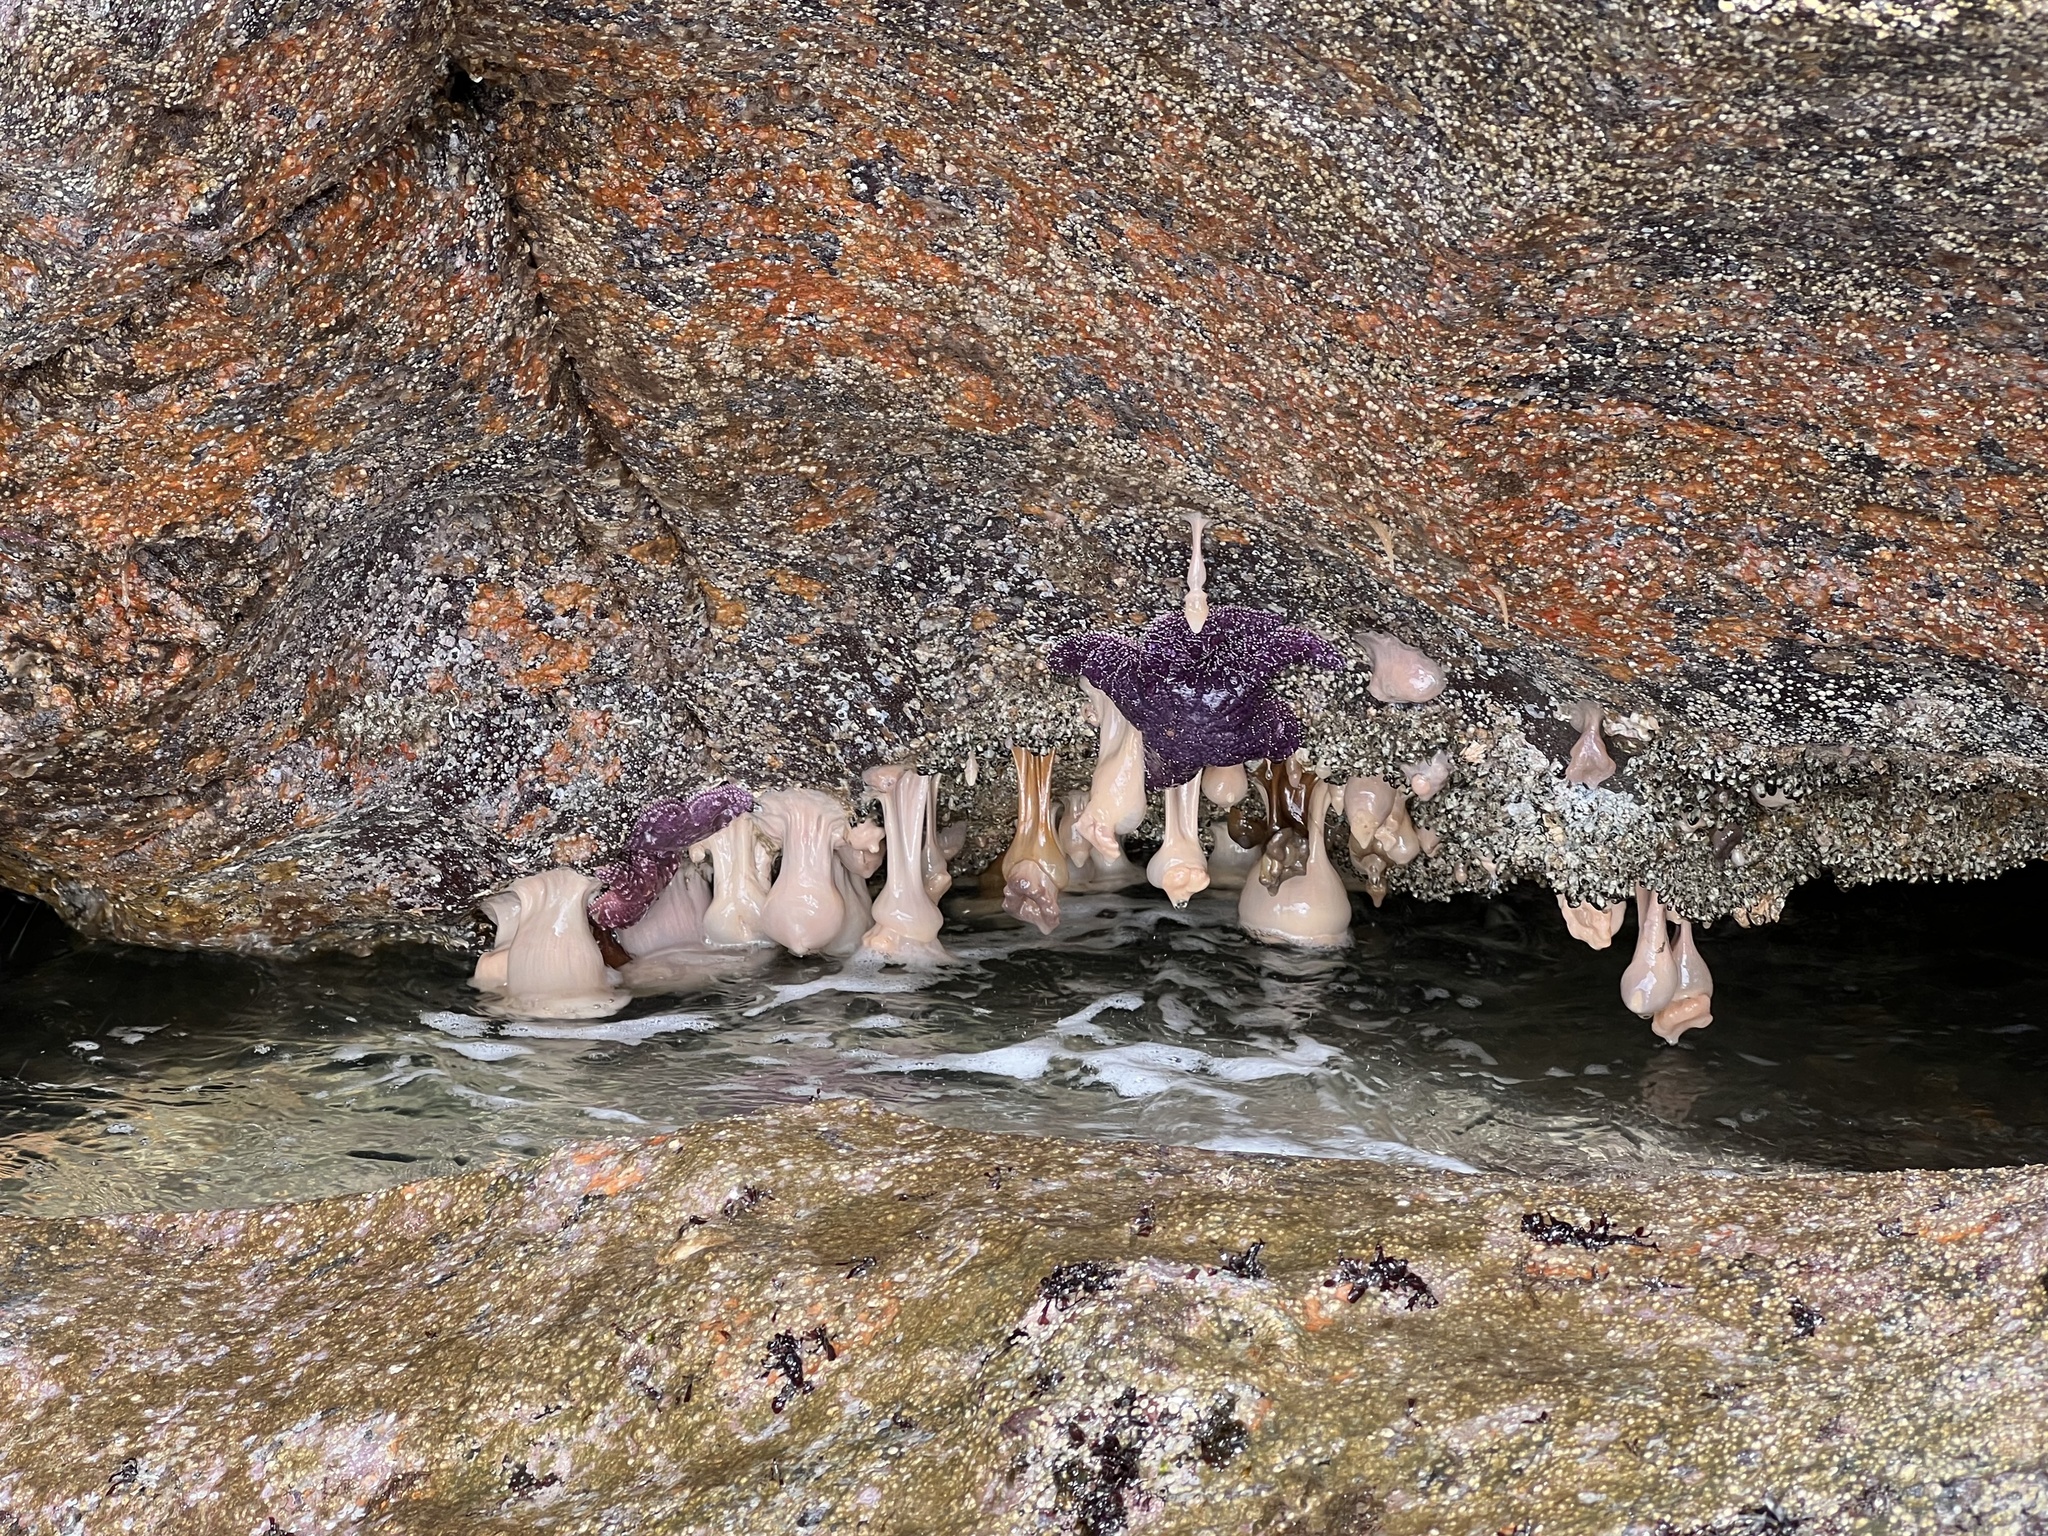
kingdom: Animalia
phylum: Echinodermata
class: Asteroidea
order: Forcipulatida
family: Asteriidae
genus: Pisaster
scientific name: Pisaster ochraceus
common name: Ochre stars
